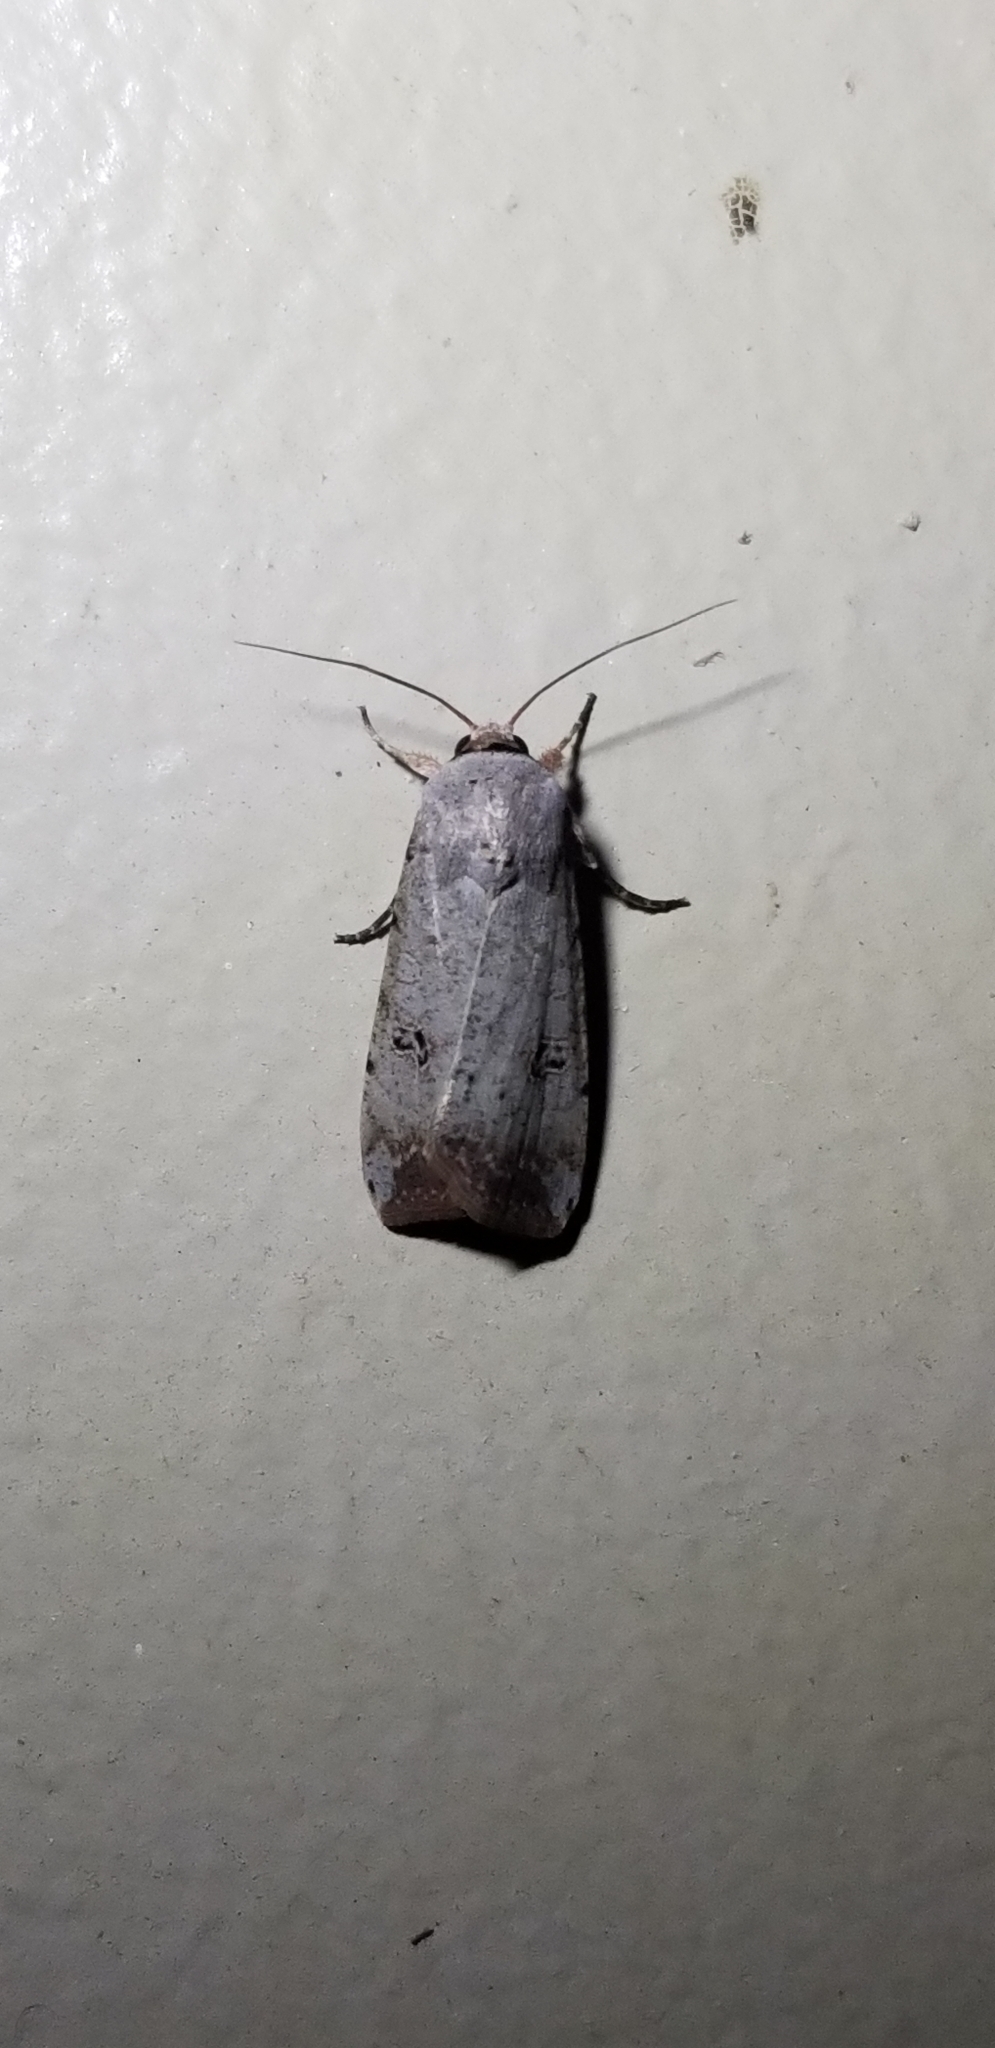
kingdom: Animalia
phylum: Arthropoda
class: Insecta
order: Lepidoptera
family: Noctuidae
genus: Anicla
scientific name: Anicla infecta
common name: Green cutworm
